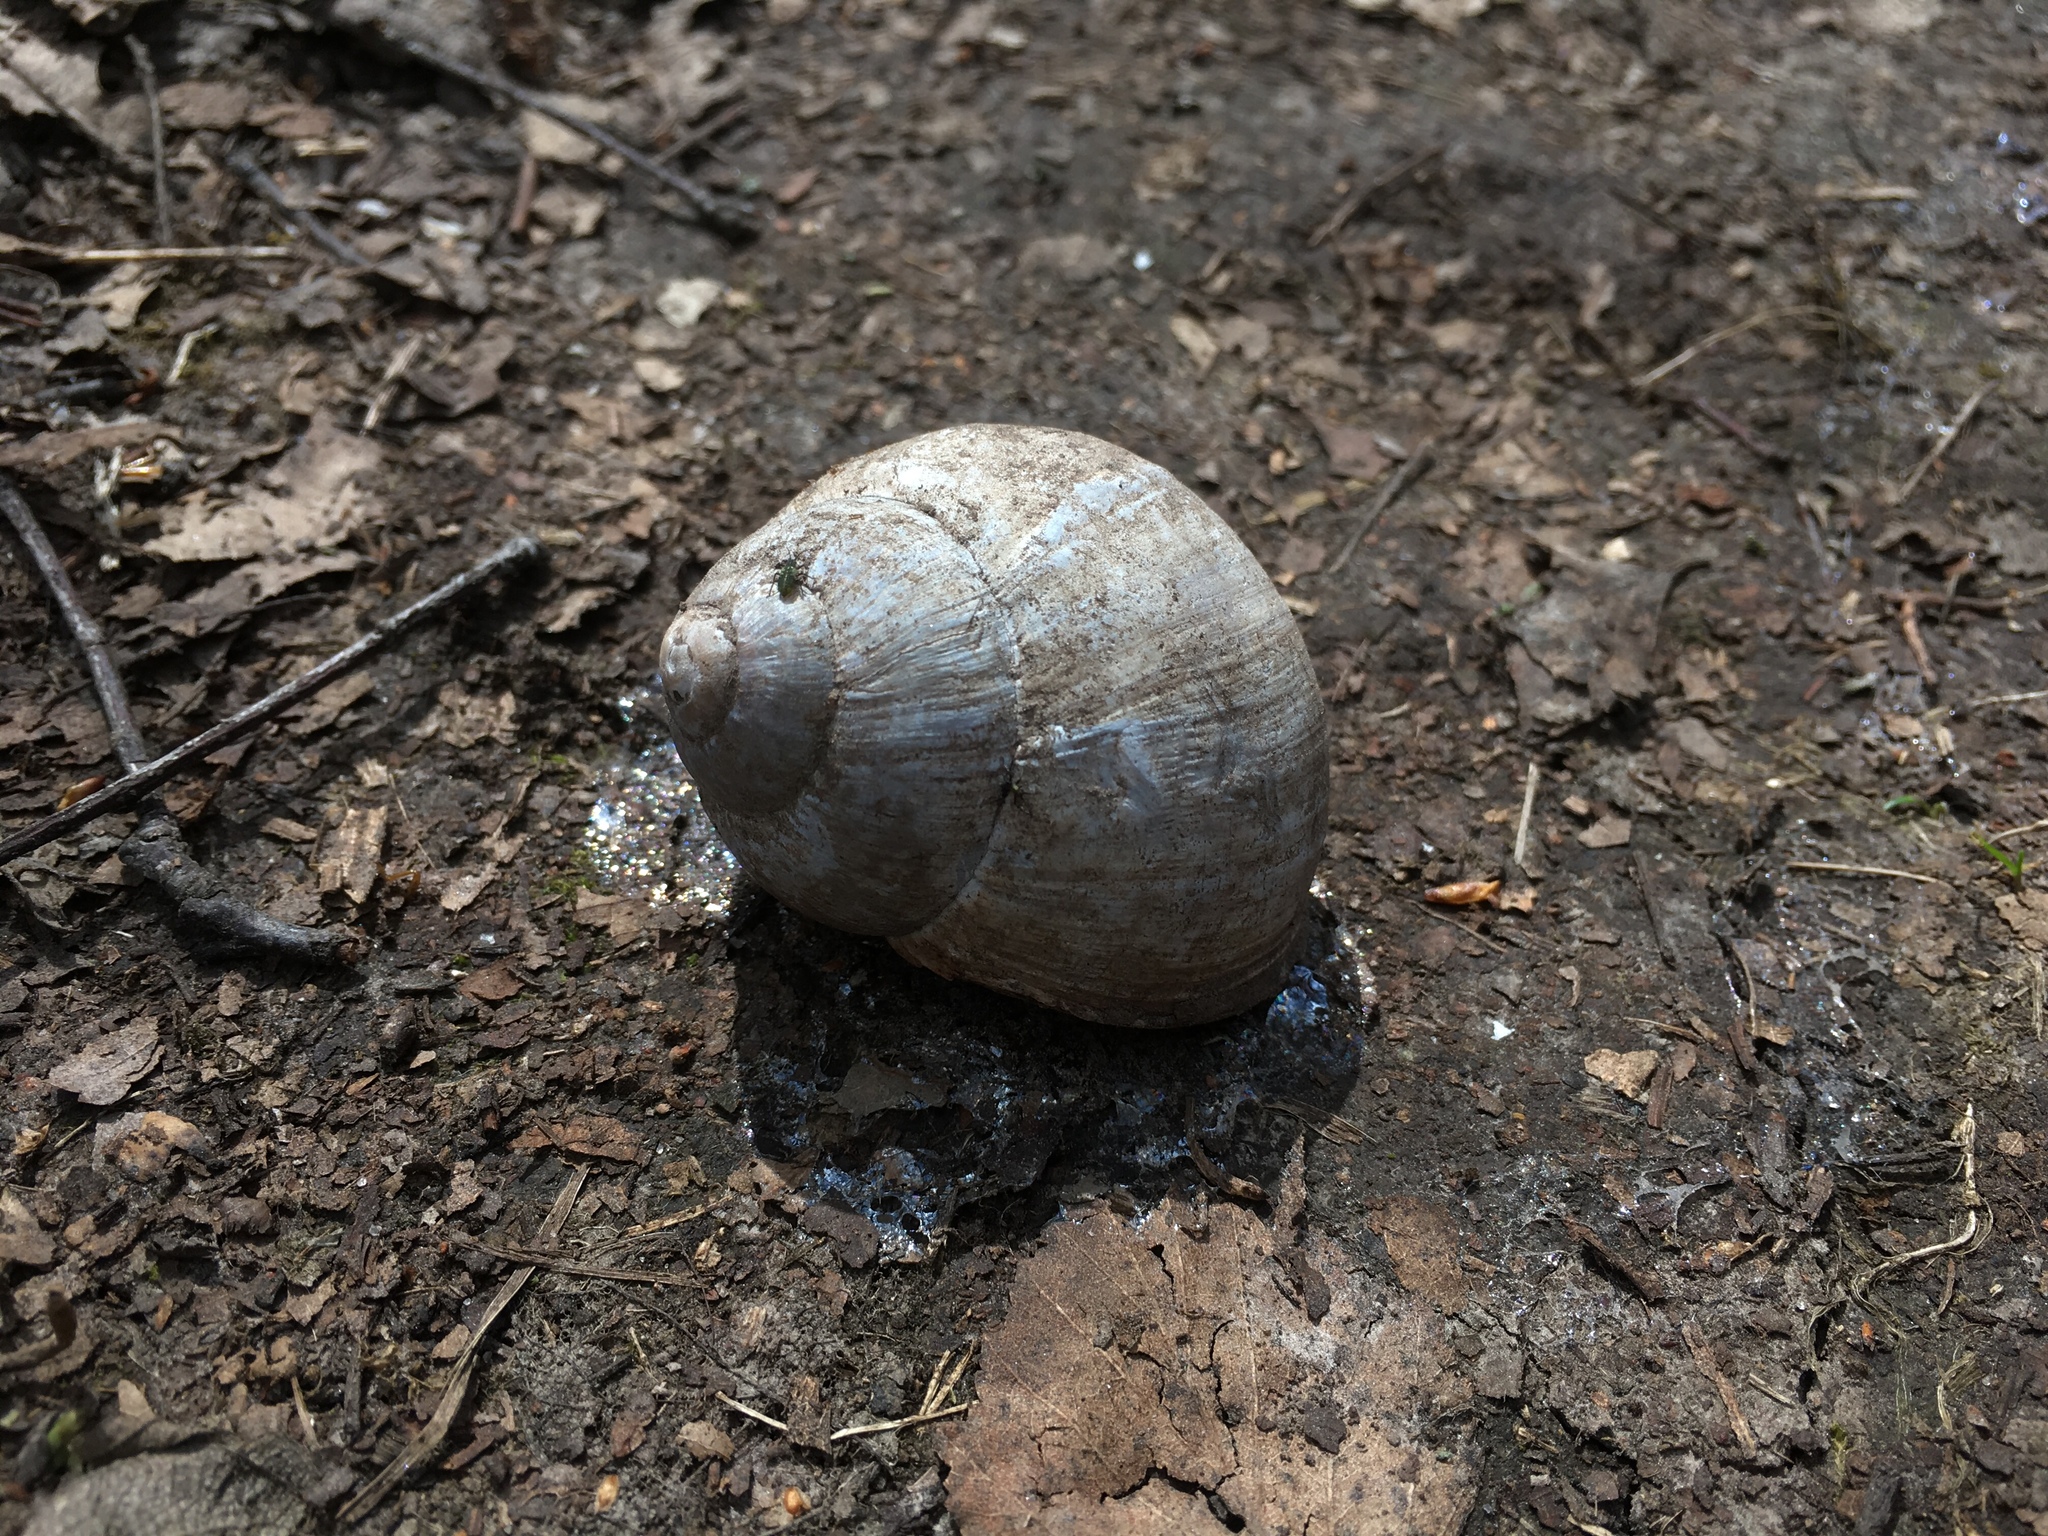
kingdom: Animalia
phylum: Mollusca
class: Gastropoda
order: Stylommatophora
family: Helicidae
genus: Helix
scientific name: Helix pomatia
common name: Roman snail
